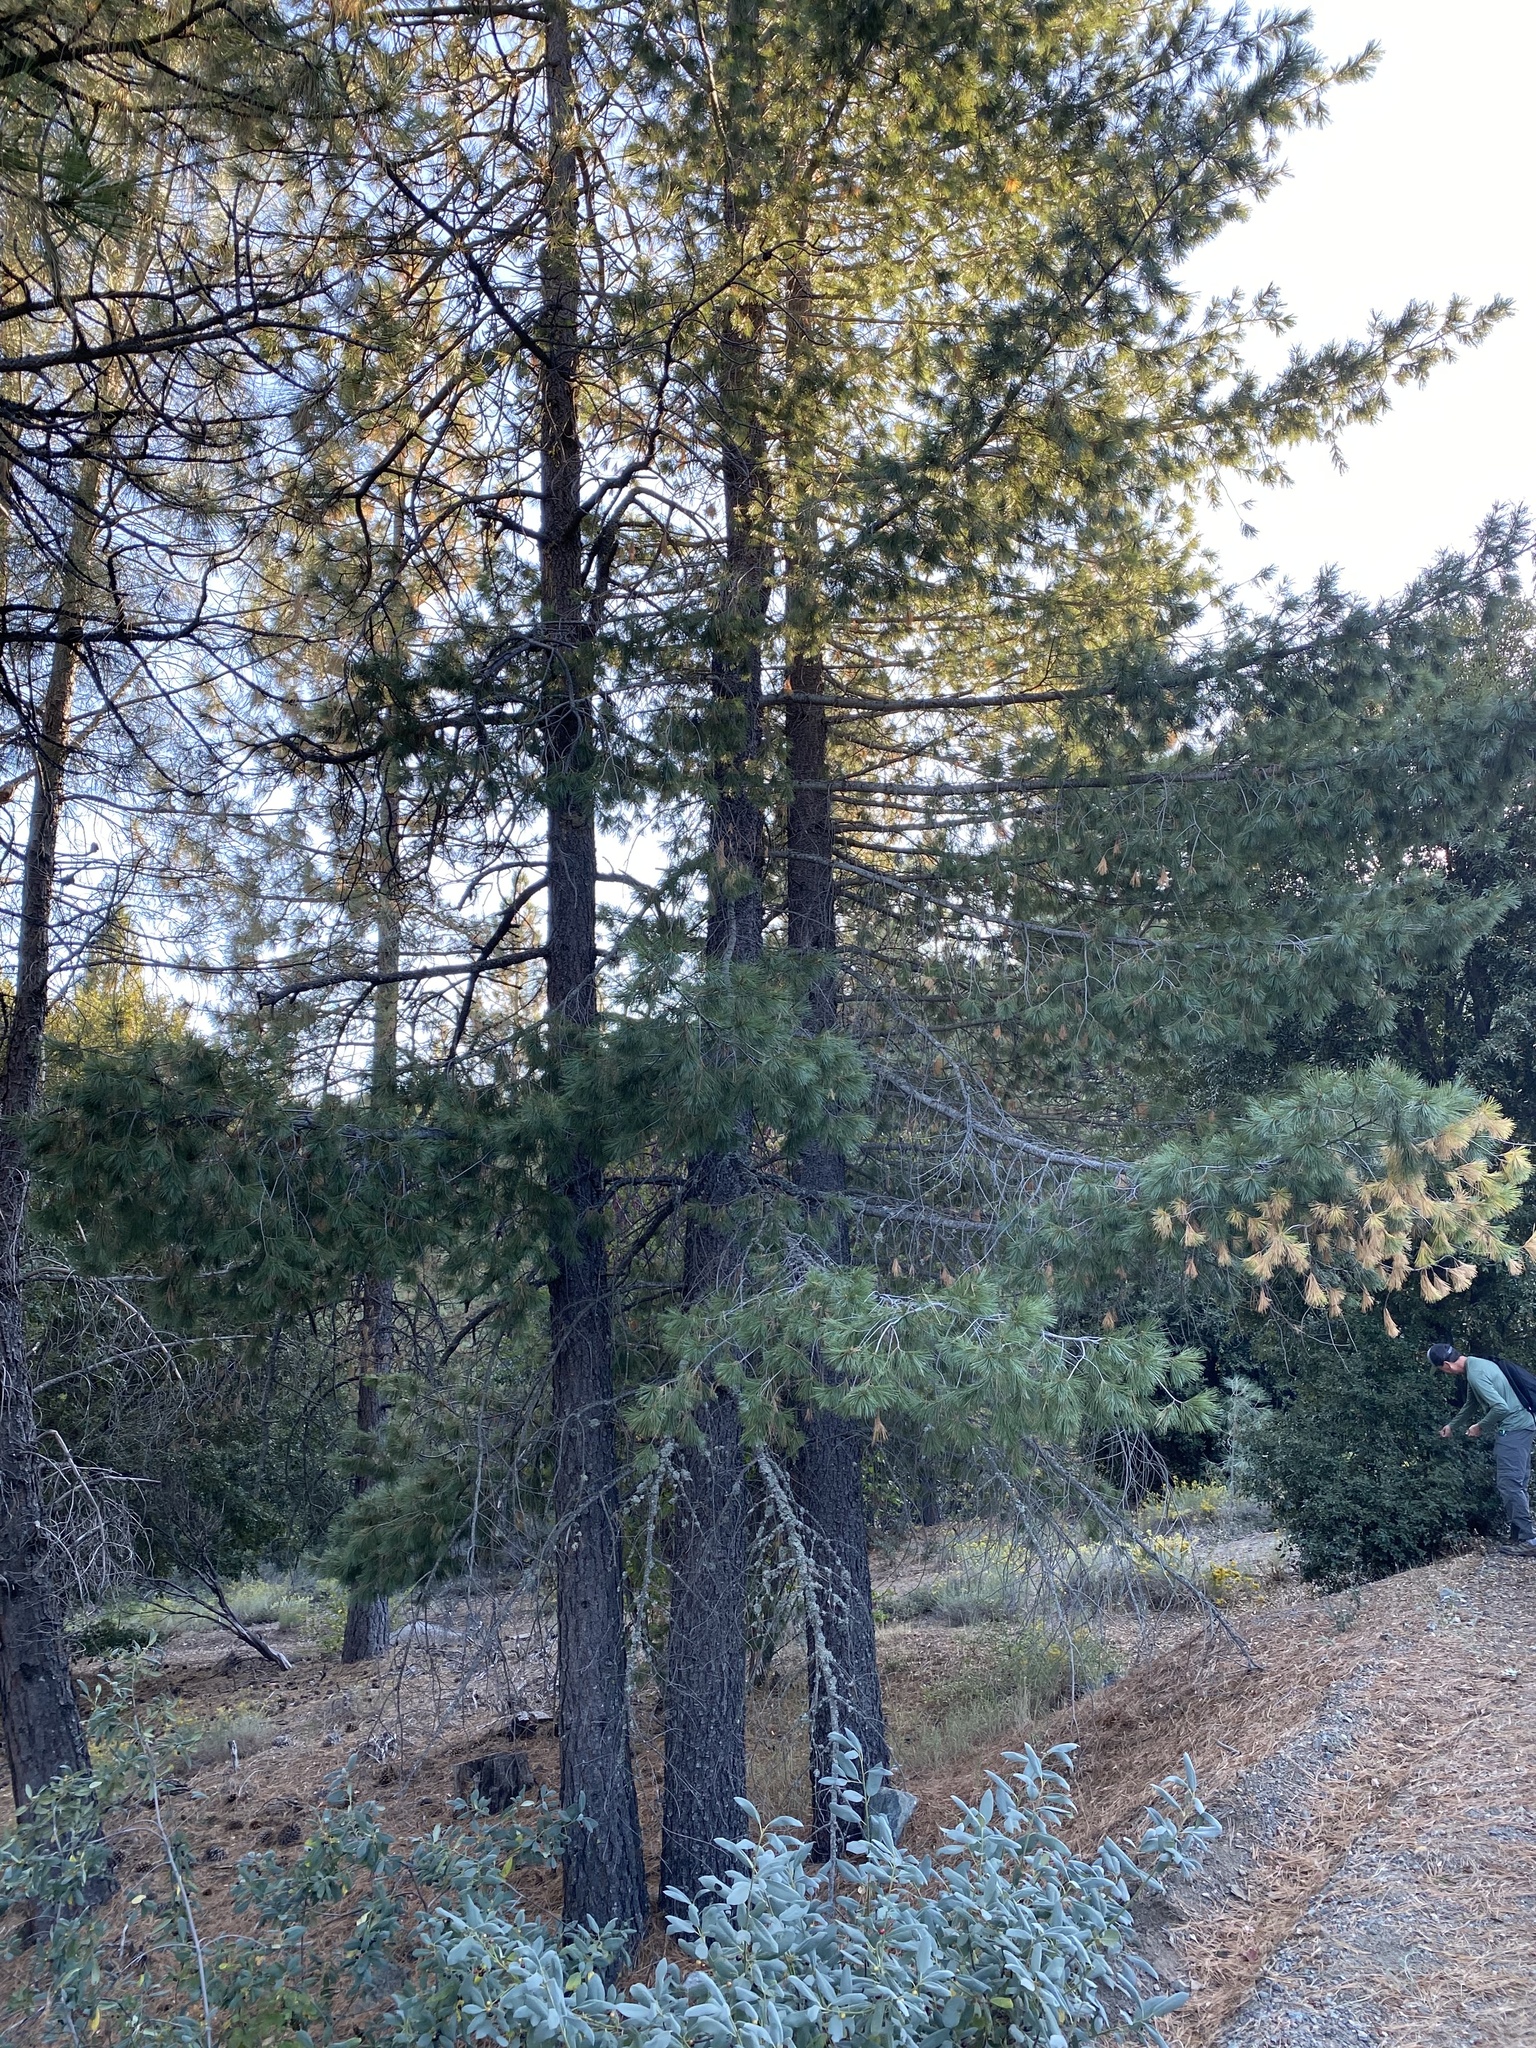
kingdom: Plantae
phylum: Tracheophyta
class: Pinopsida
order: Pinales
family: Pinaceae
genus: Pinus
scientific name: Pinus lambertiana
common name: Sugar pine
